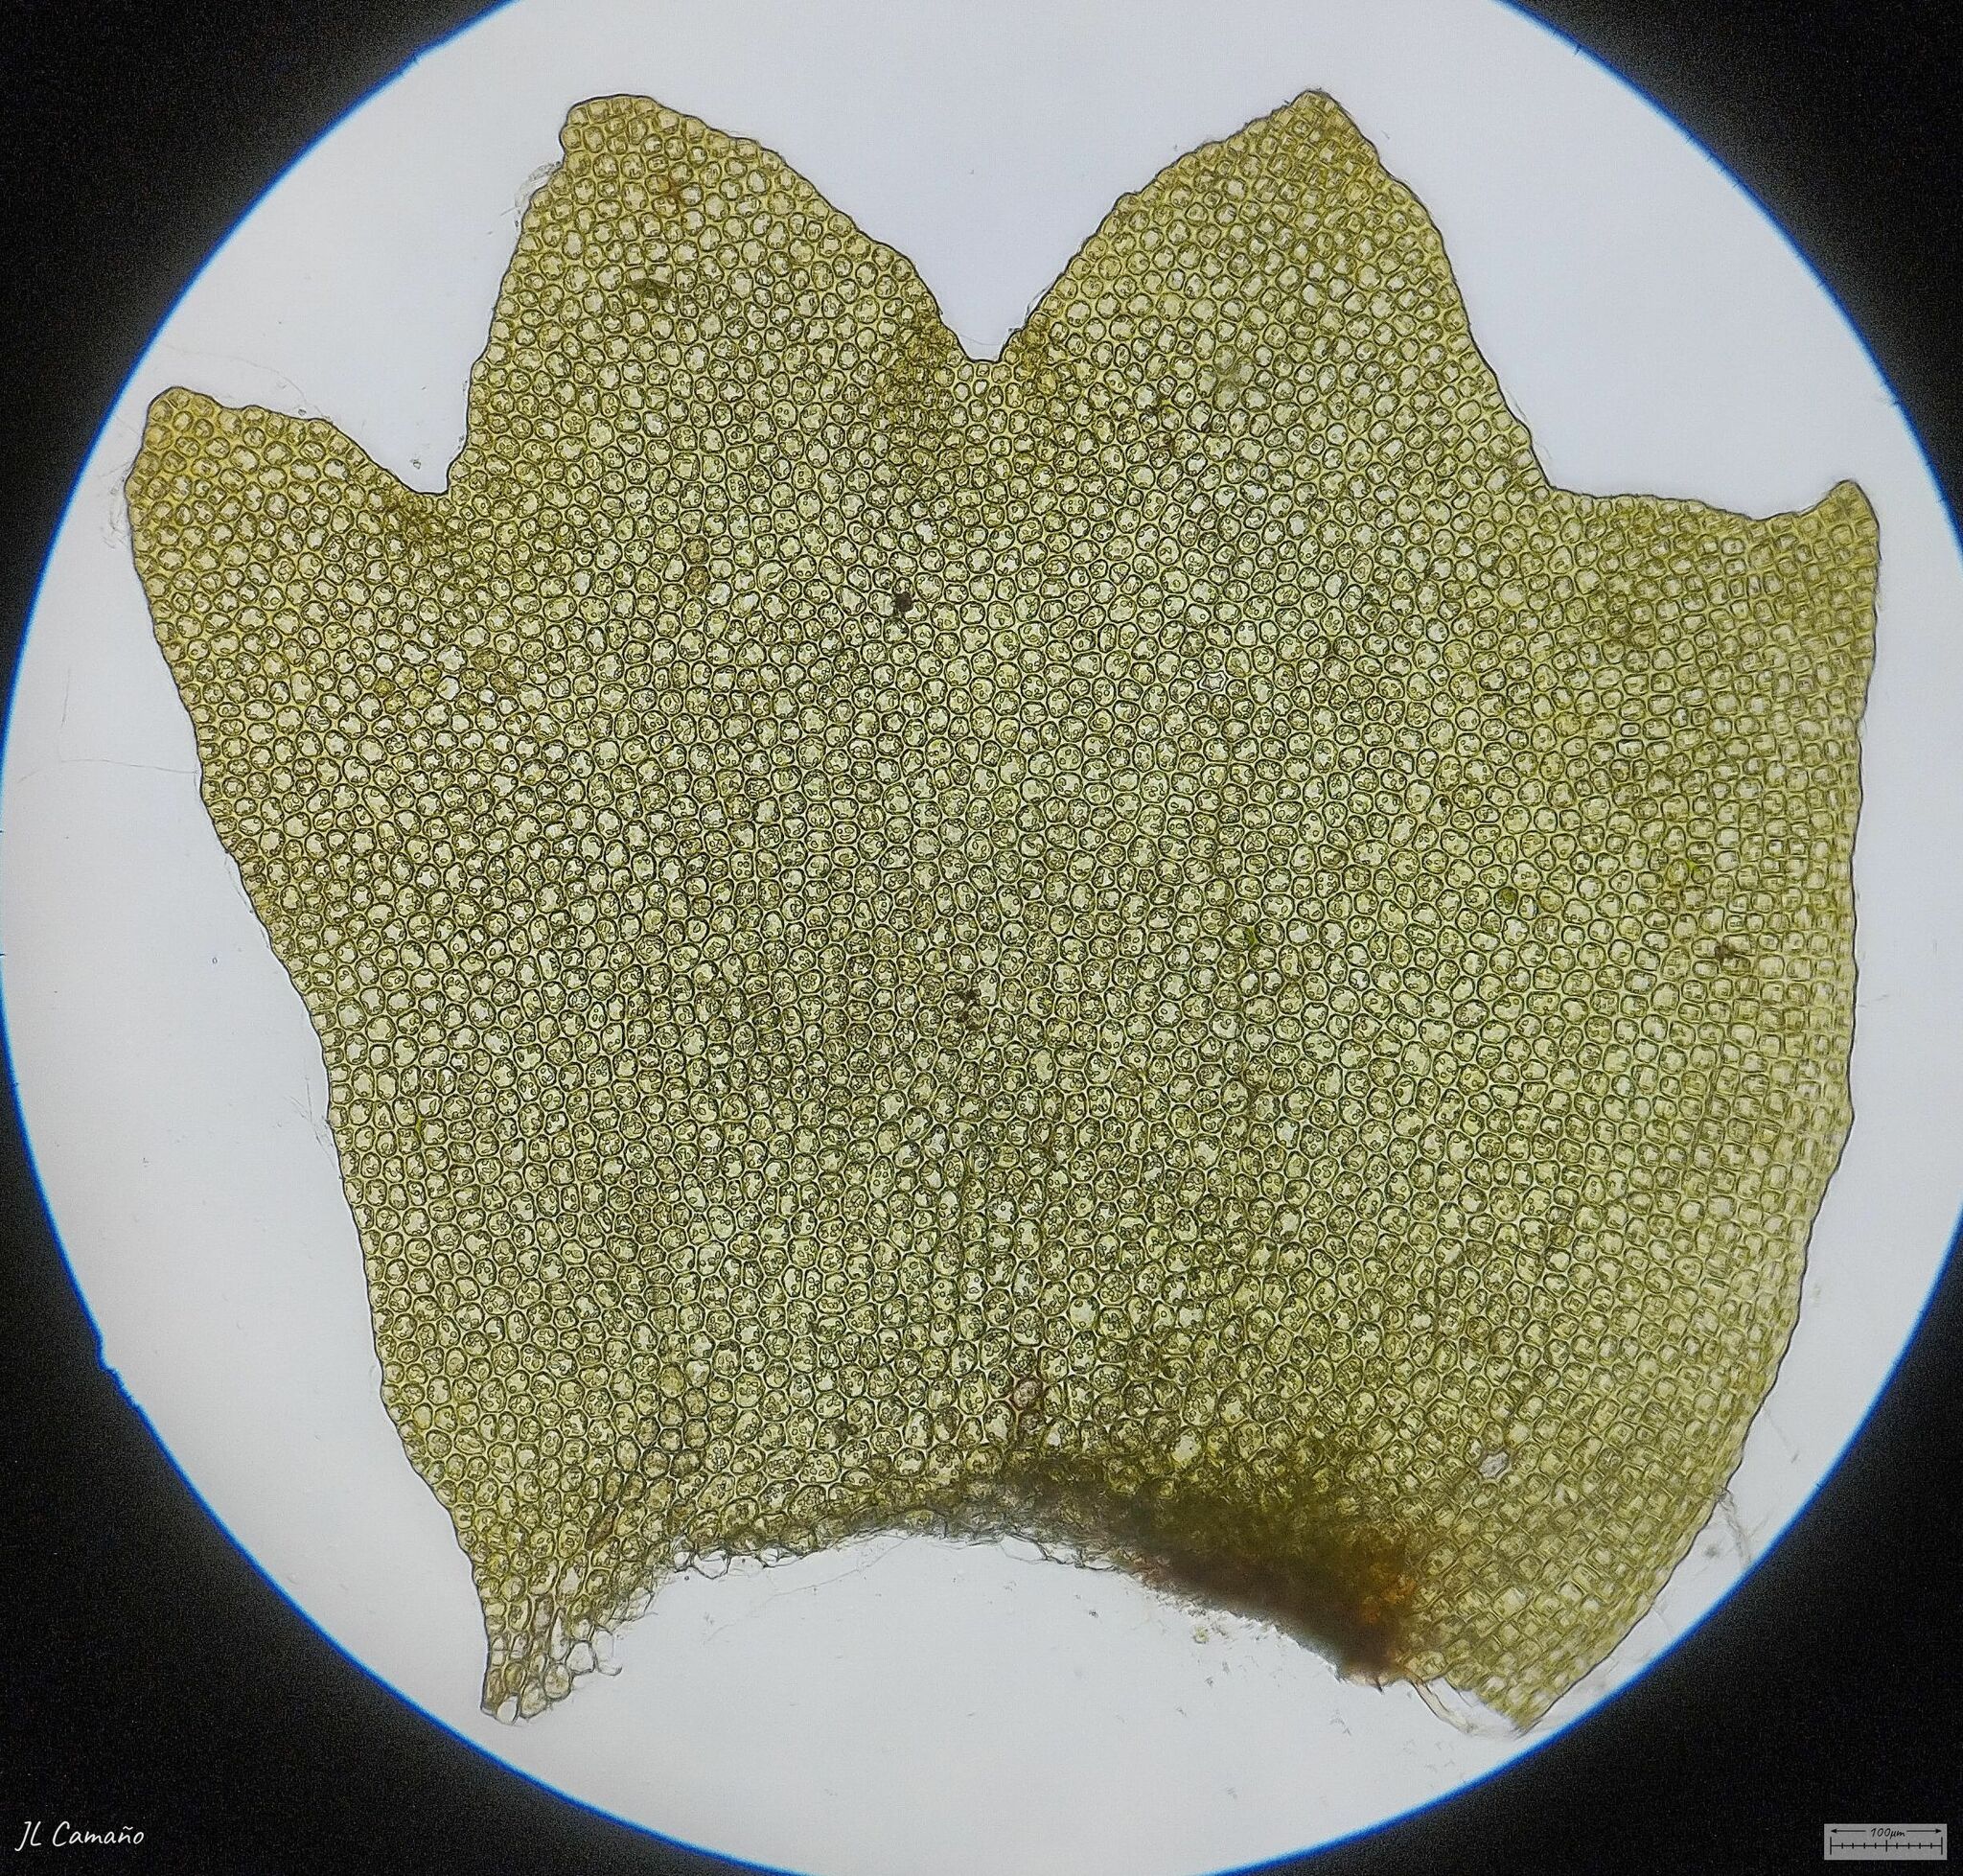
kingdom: Plantae
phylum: Marchantiophyta
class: Jungermanniopsida
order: Jungermanniales
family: Anastrophyllaceae
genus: Barbilophozia
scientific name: Barbilophozia barbata
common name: Bearded pawwort
